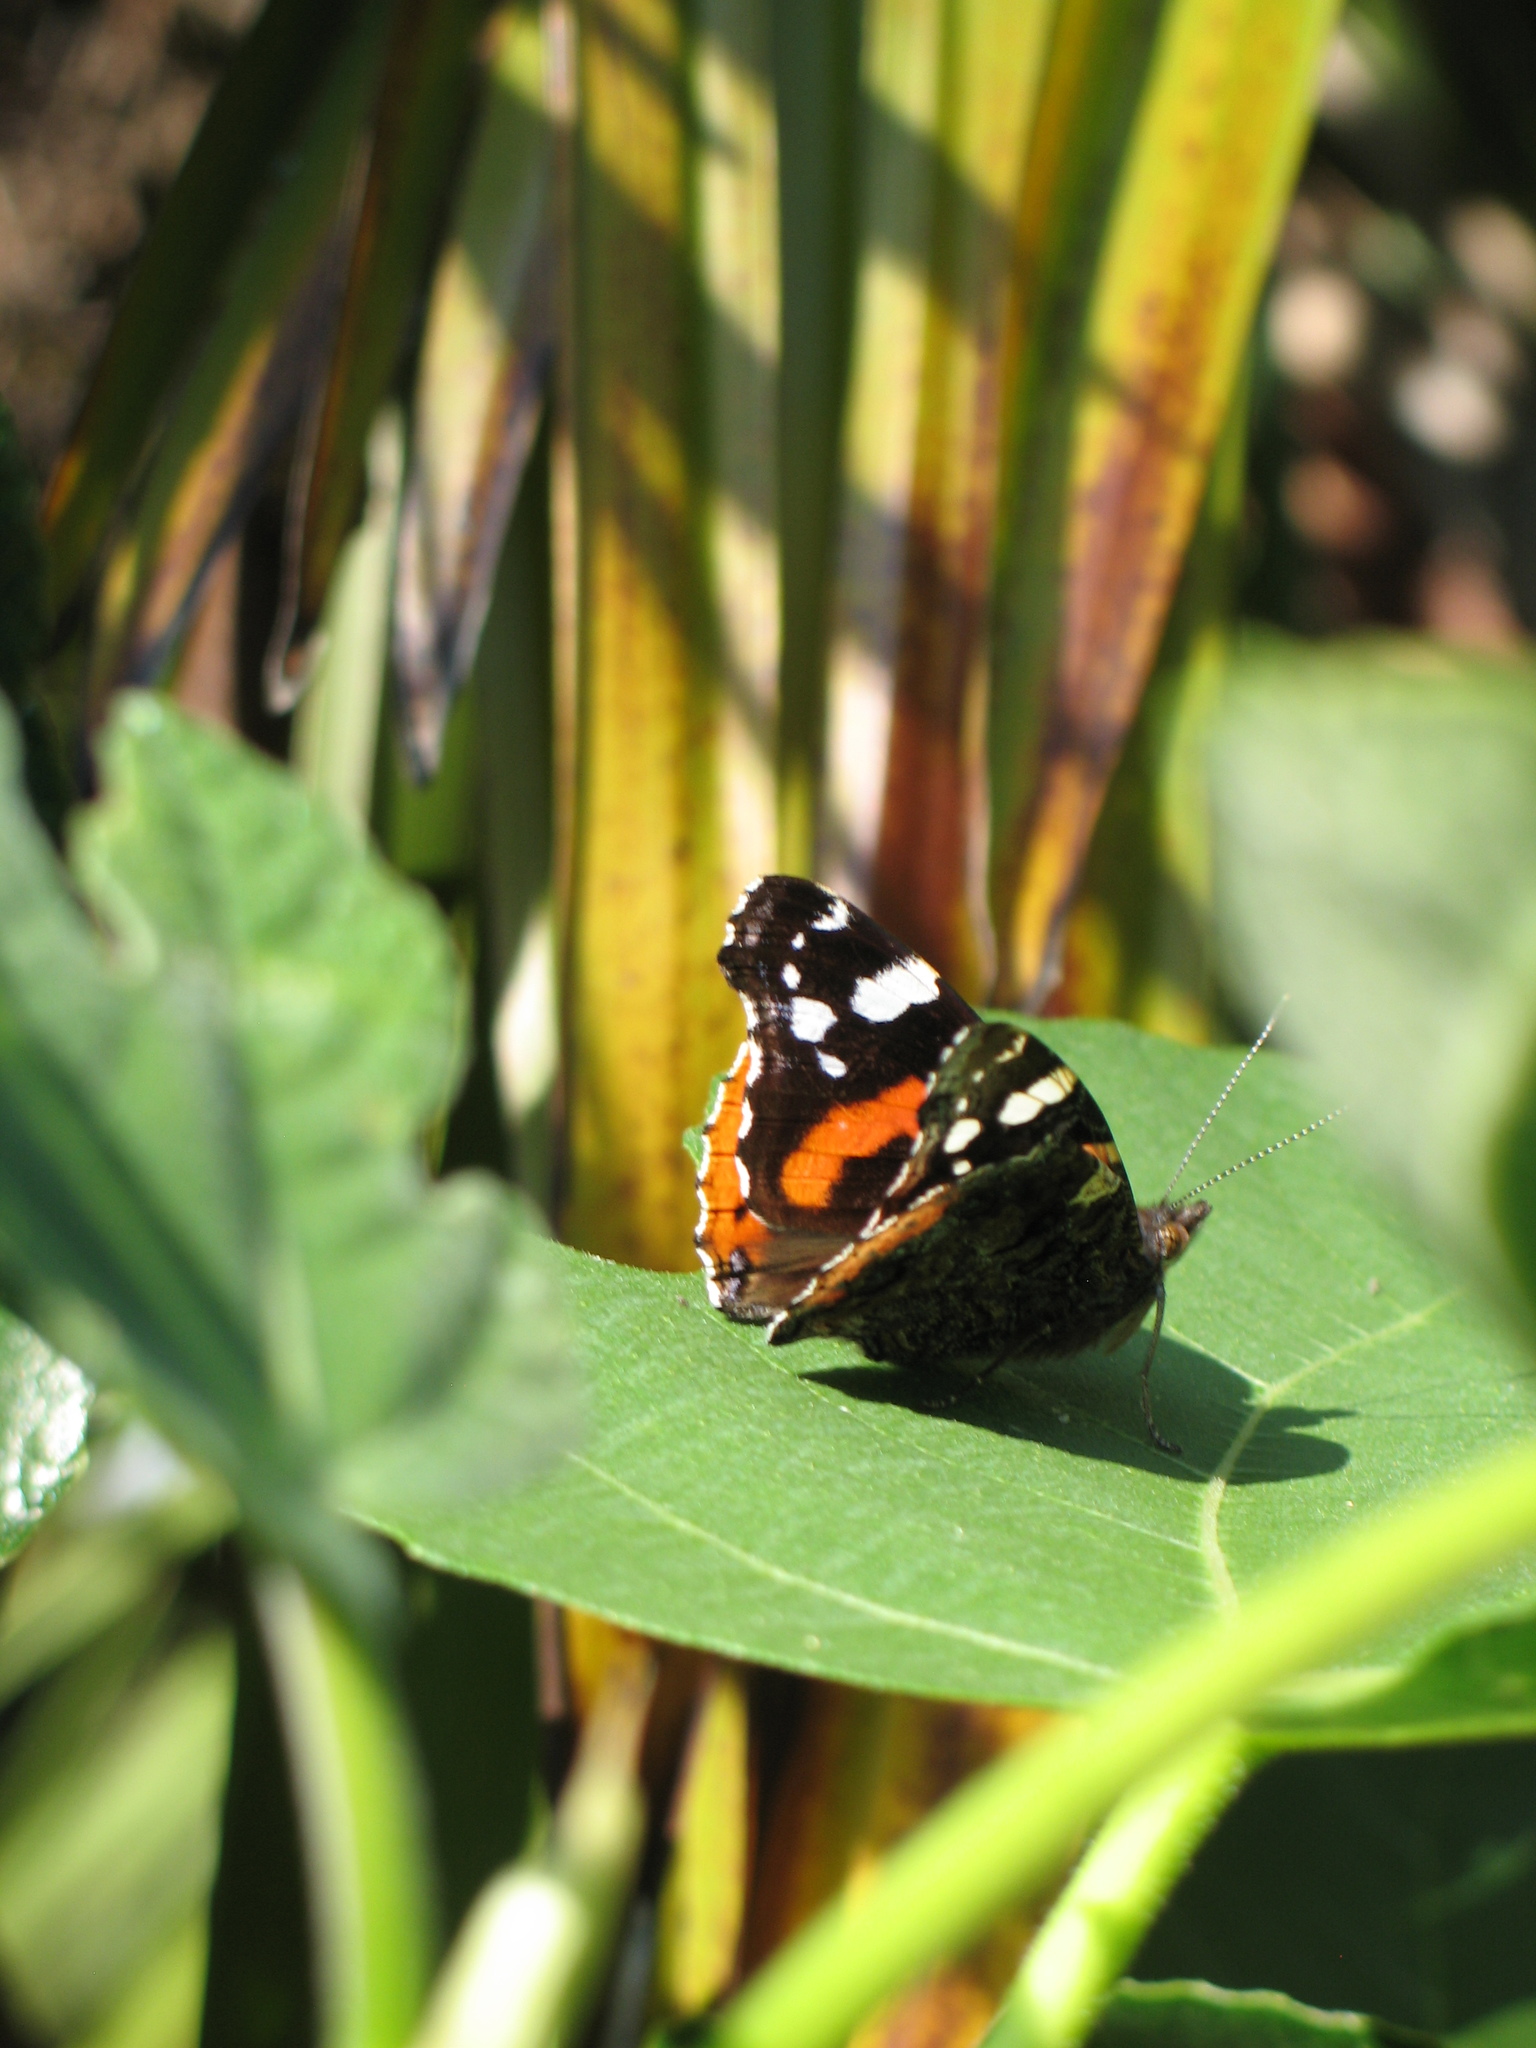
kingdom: Animalia
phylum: Arthropoda
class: Insecta
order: Lepidoptera
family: Nymphalidae
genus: Vanessa
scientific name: Vanessa atalanta
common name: Red admiral
